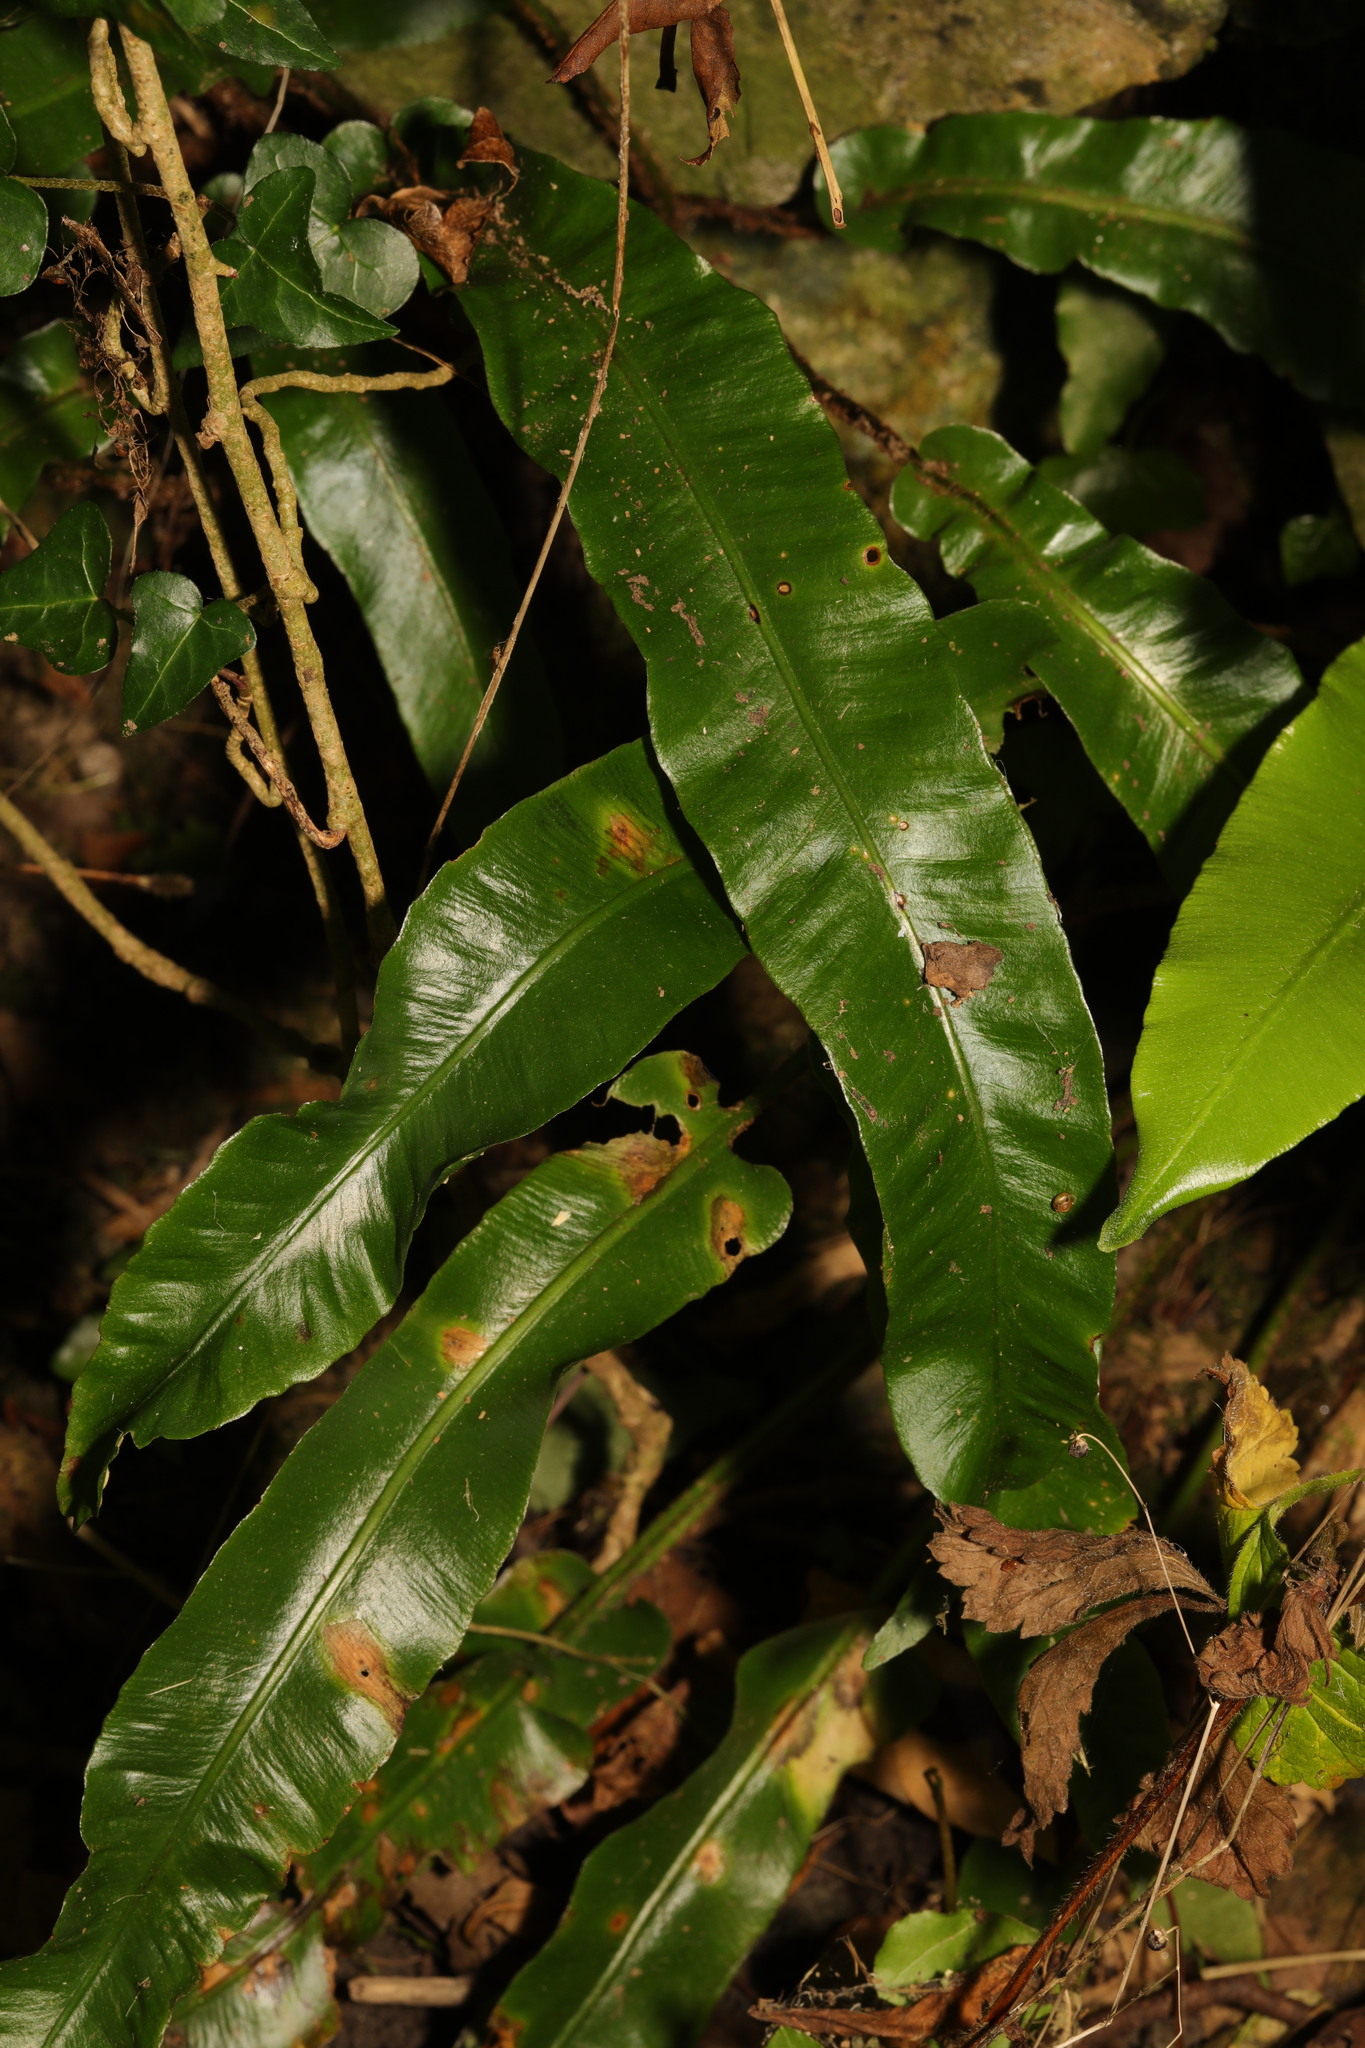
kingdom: Plantae
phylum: Tracheophyta
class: Polypodiopsida
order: Polypodiales
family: Aspleniaceae
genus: Asplenium
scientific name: Asplenium scolopendrium
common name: Hart's-tongue fern
